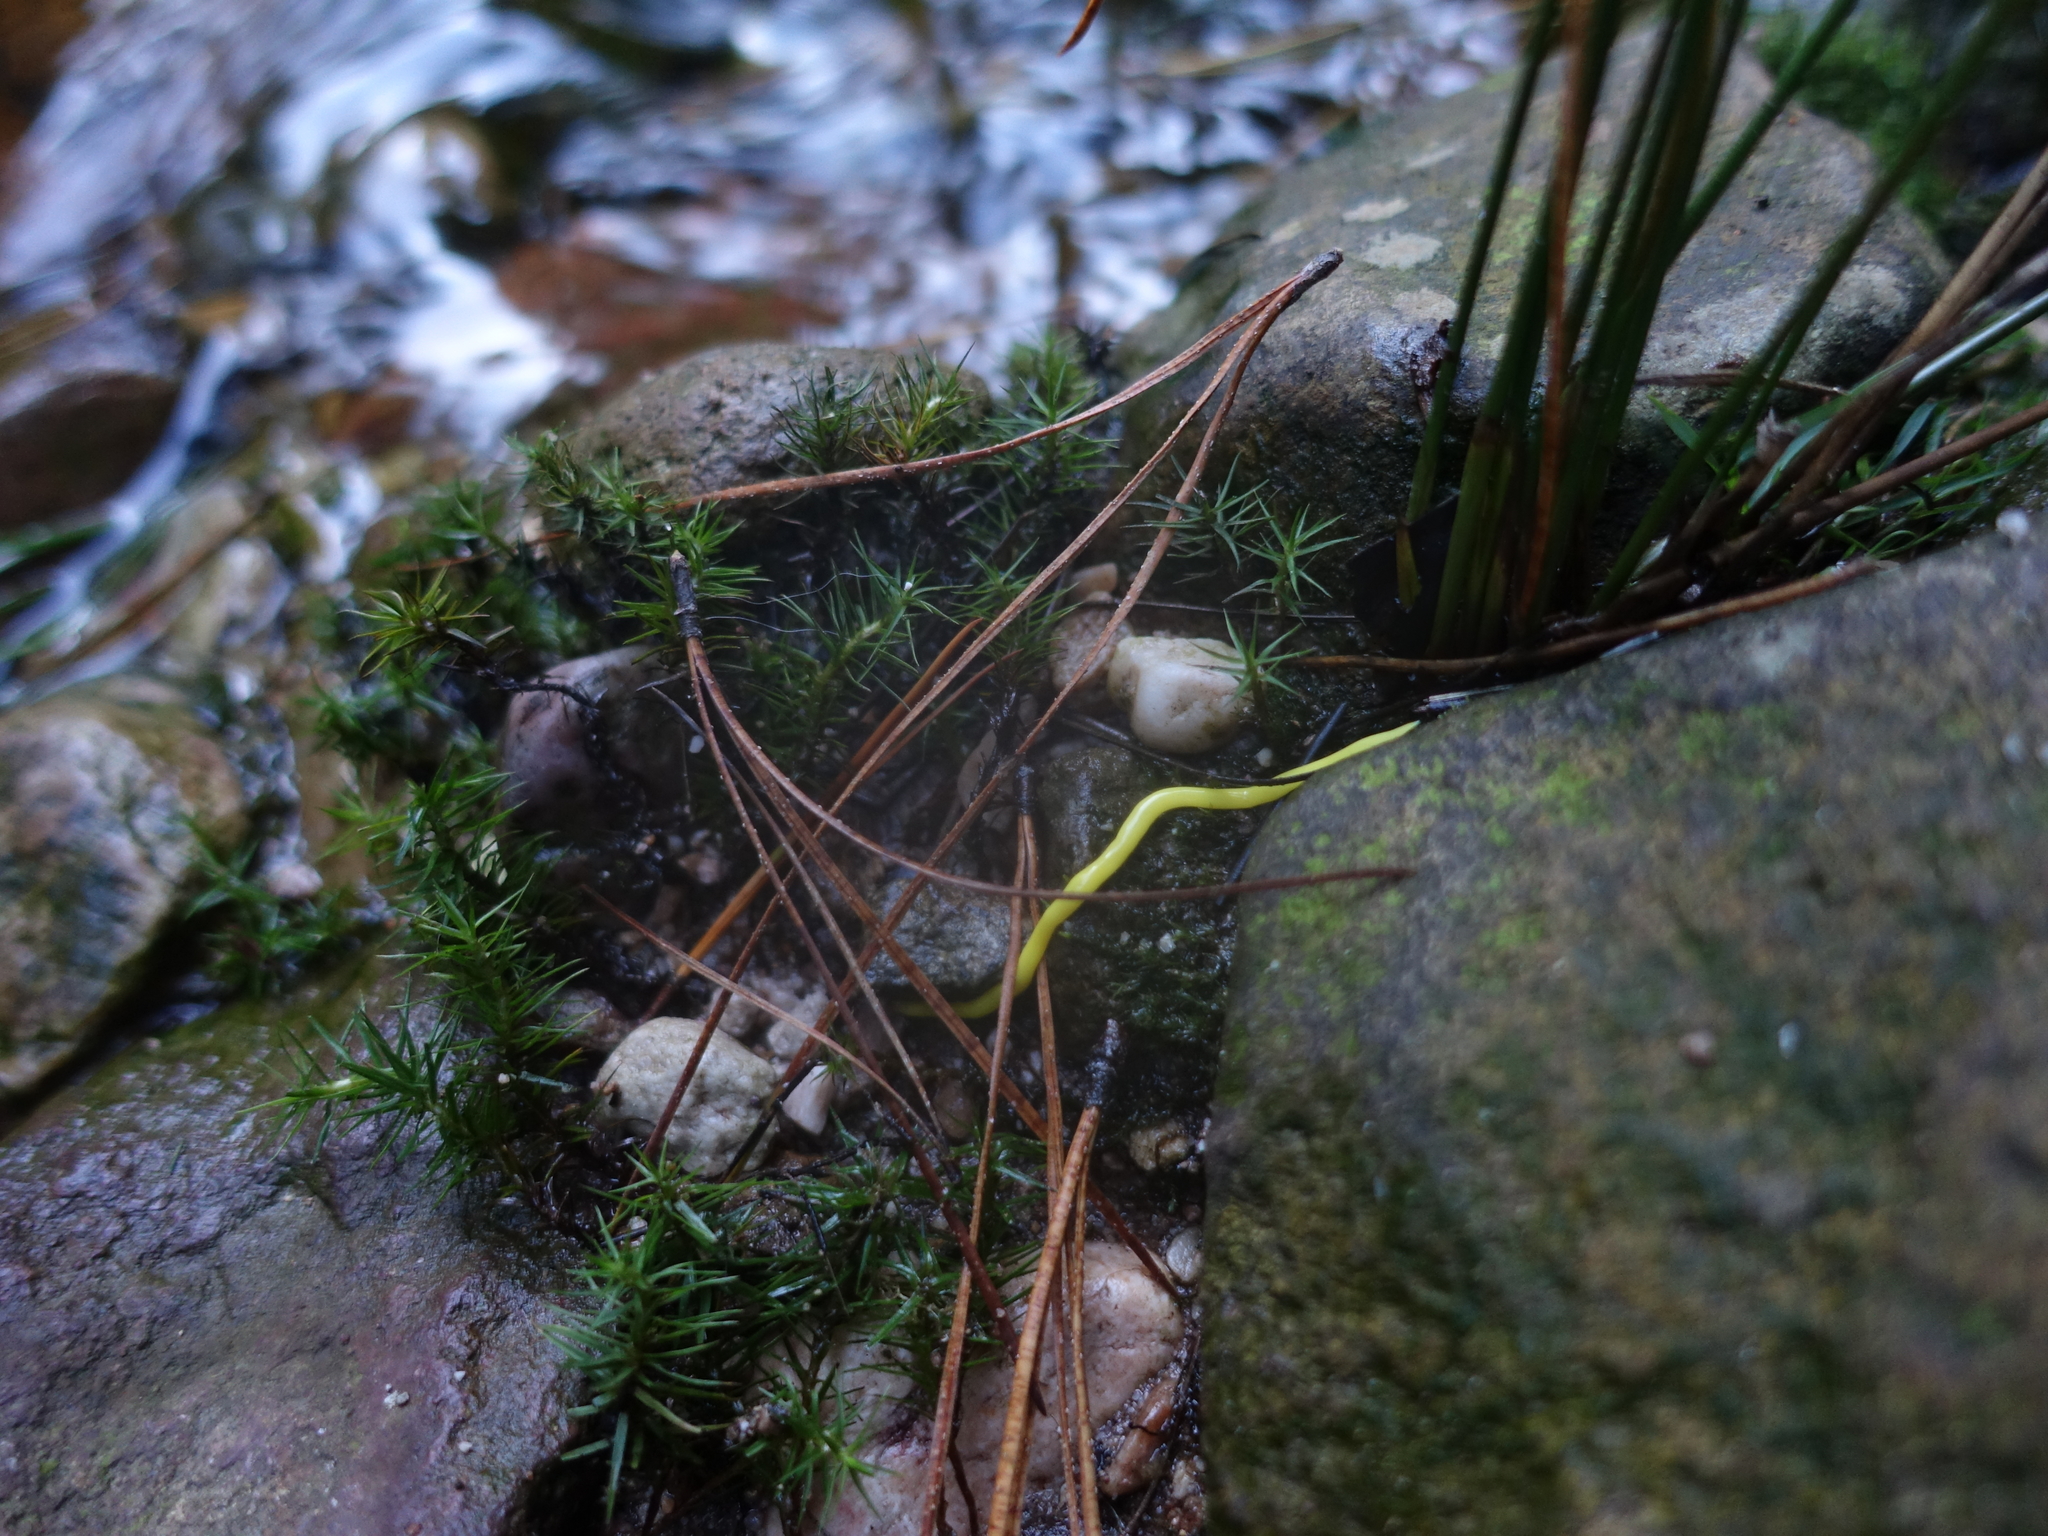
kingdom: Animalia
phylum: Platyhelminthes
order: Tricladida
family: Geoplanidae
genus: Fletchamia
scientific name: Fletchamia sugdeni
